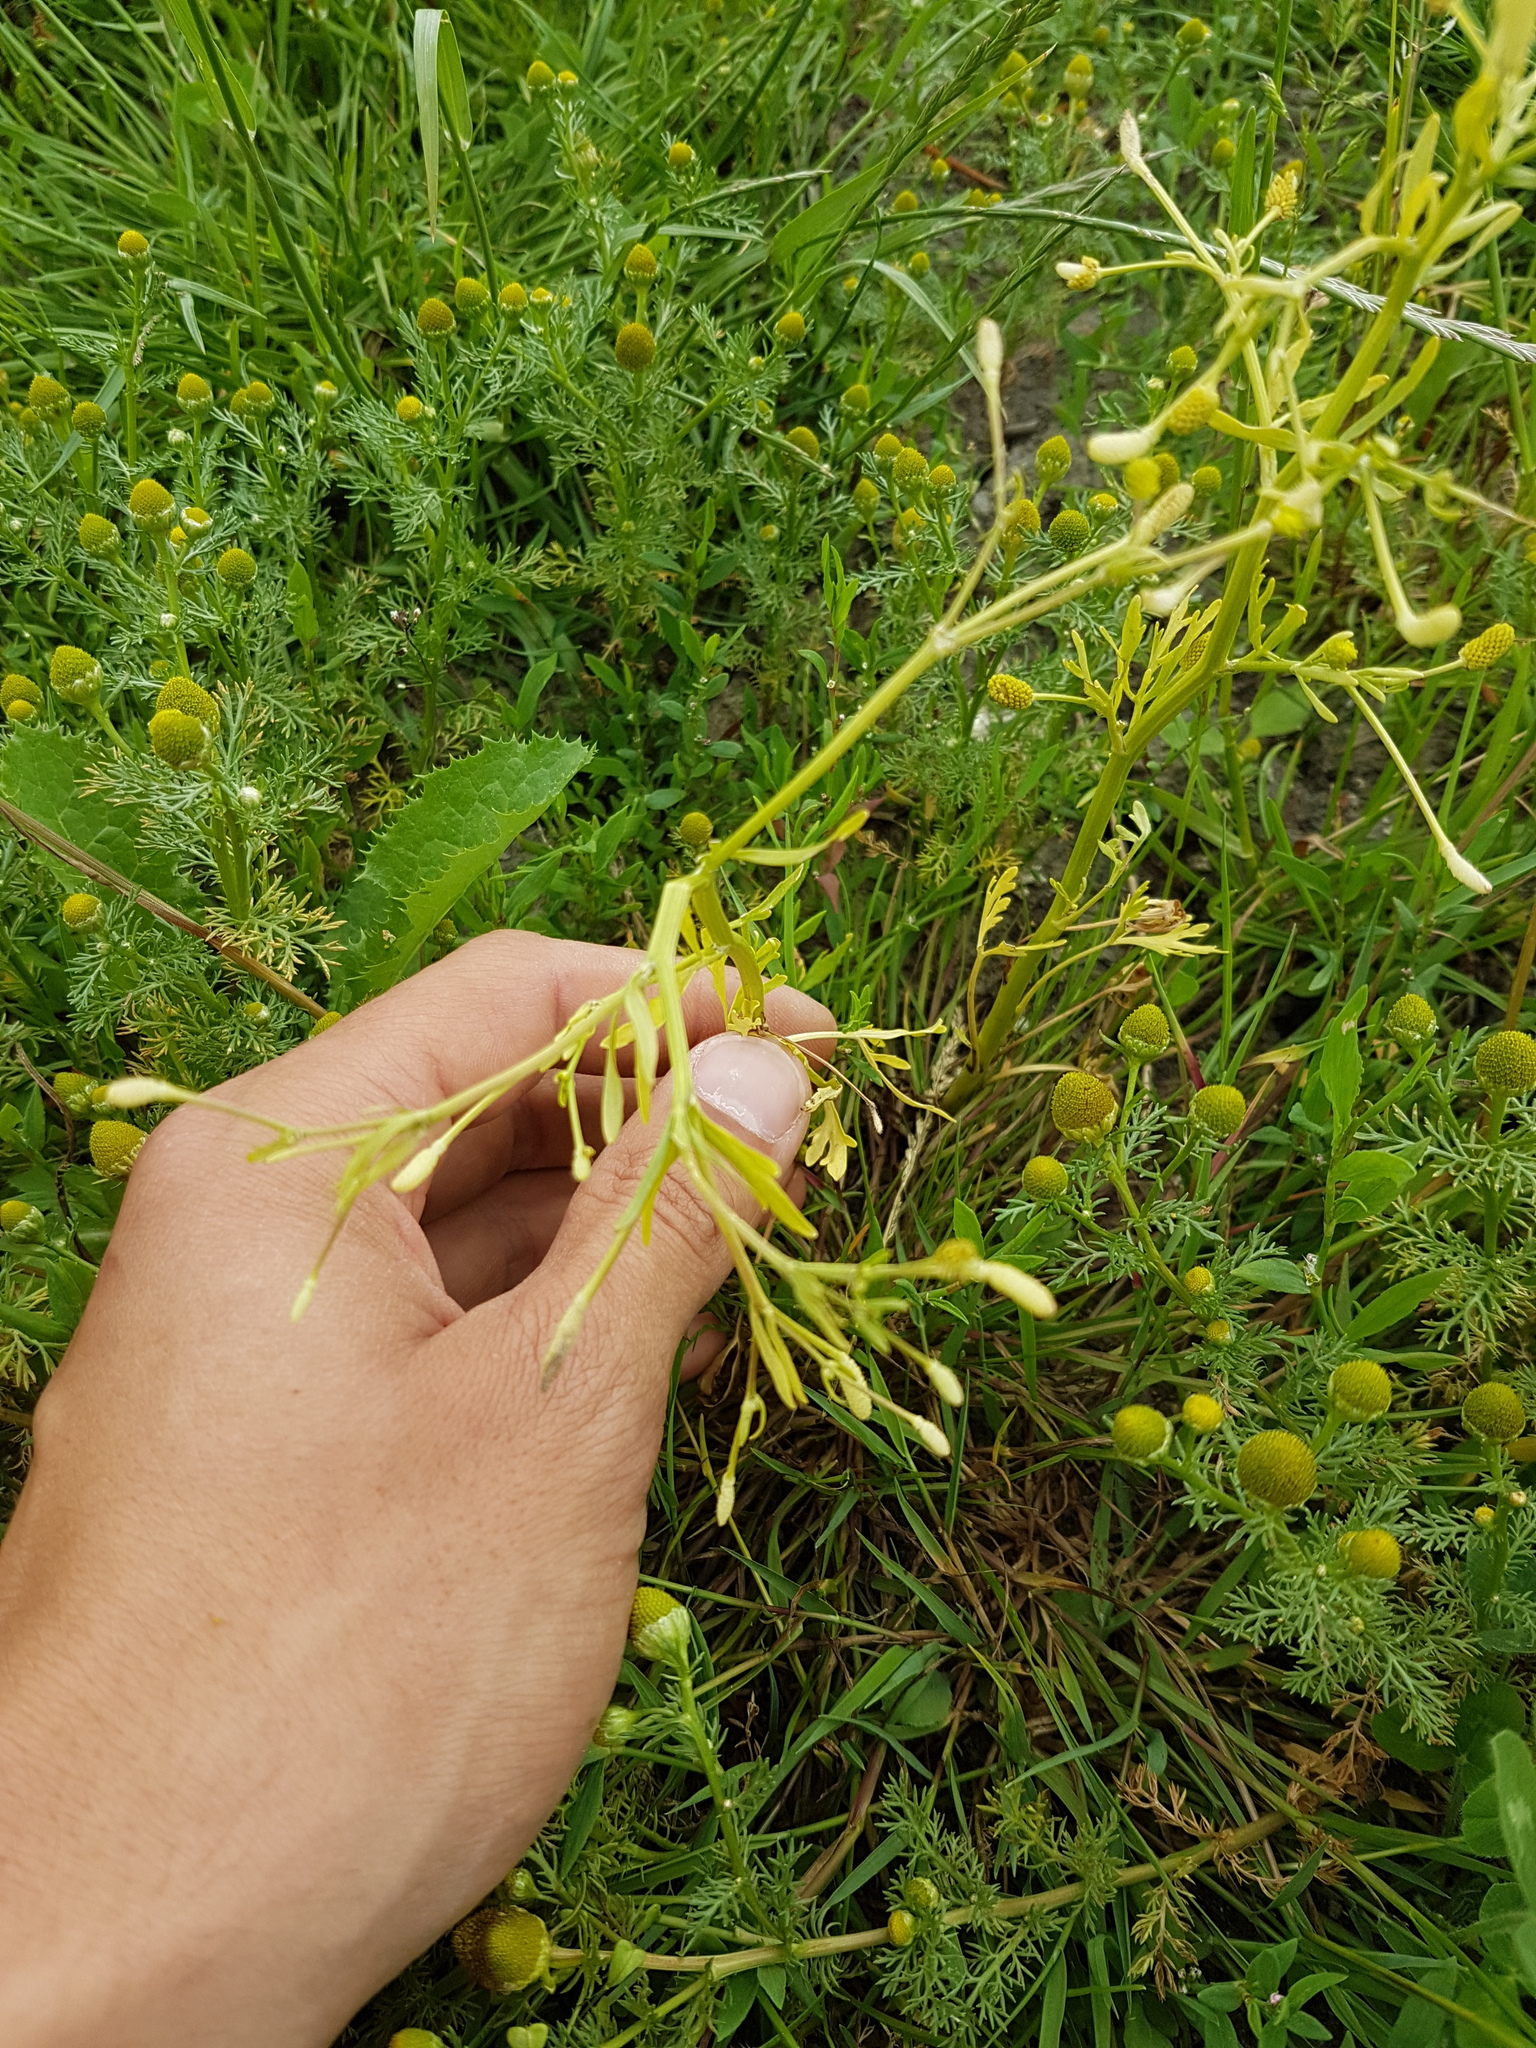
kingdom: Plantae
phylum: Tracheophyta
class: Magnoliopsida
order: Ranunculales
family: Ranunculaceae
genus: Ranunculus
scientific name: Ranunculus sceleratus
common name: Celery-leaved buttercup
